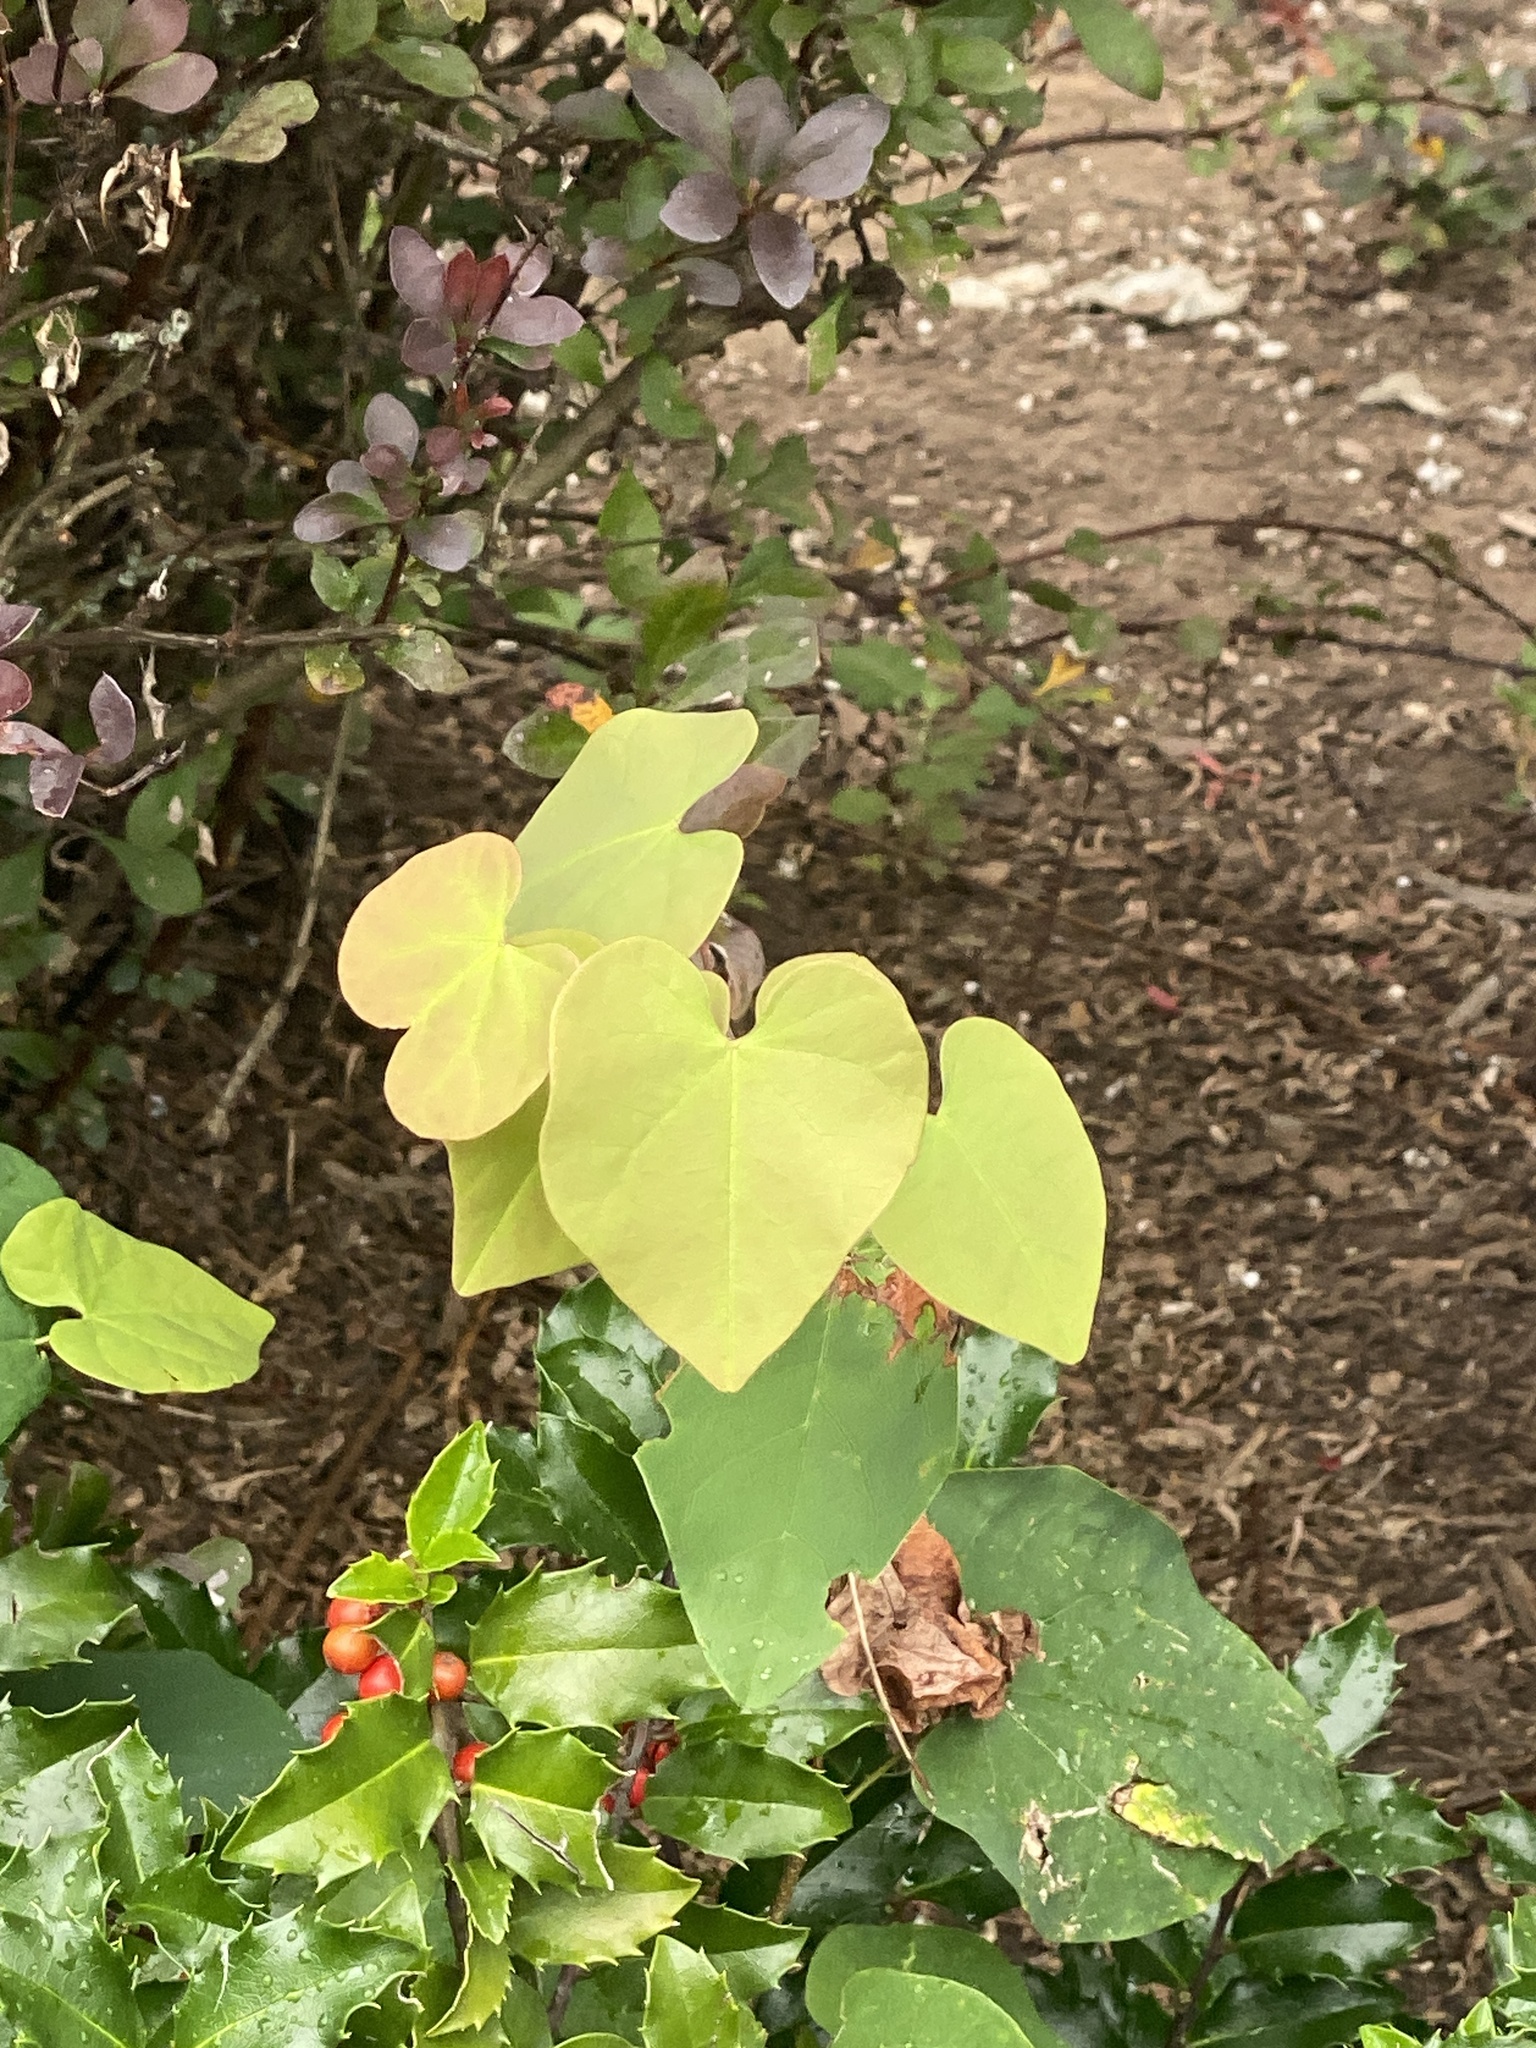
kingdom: Plantae
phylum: Tracheophyta
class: Magnoliopsida
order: Fabales
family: Fabaceae
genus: Cercis
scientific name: Cercis canadensis
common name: Eastern redbud
